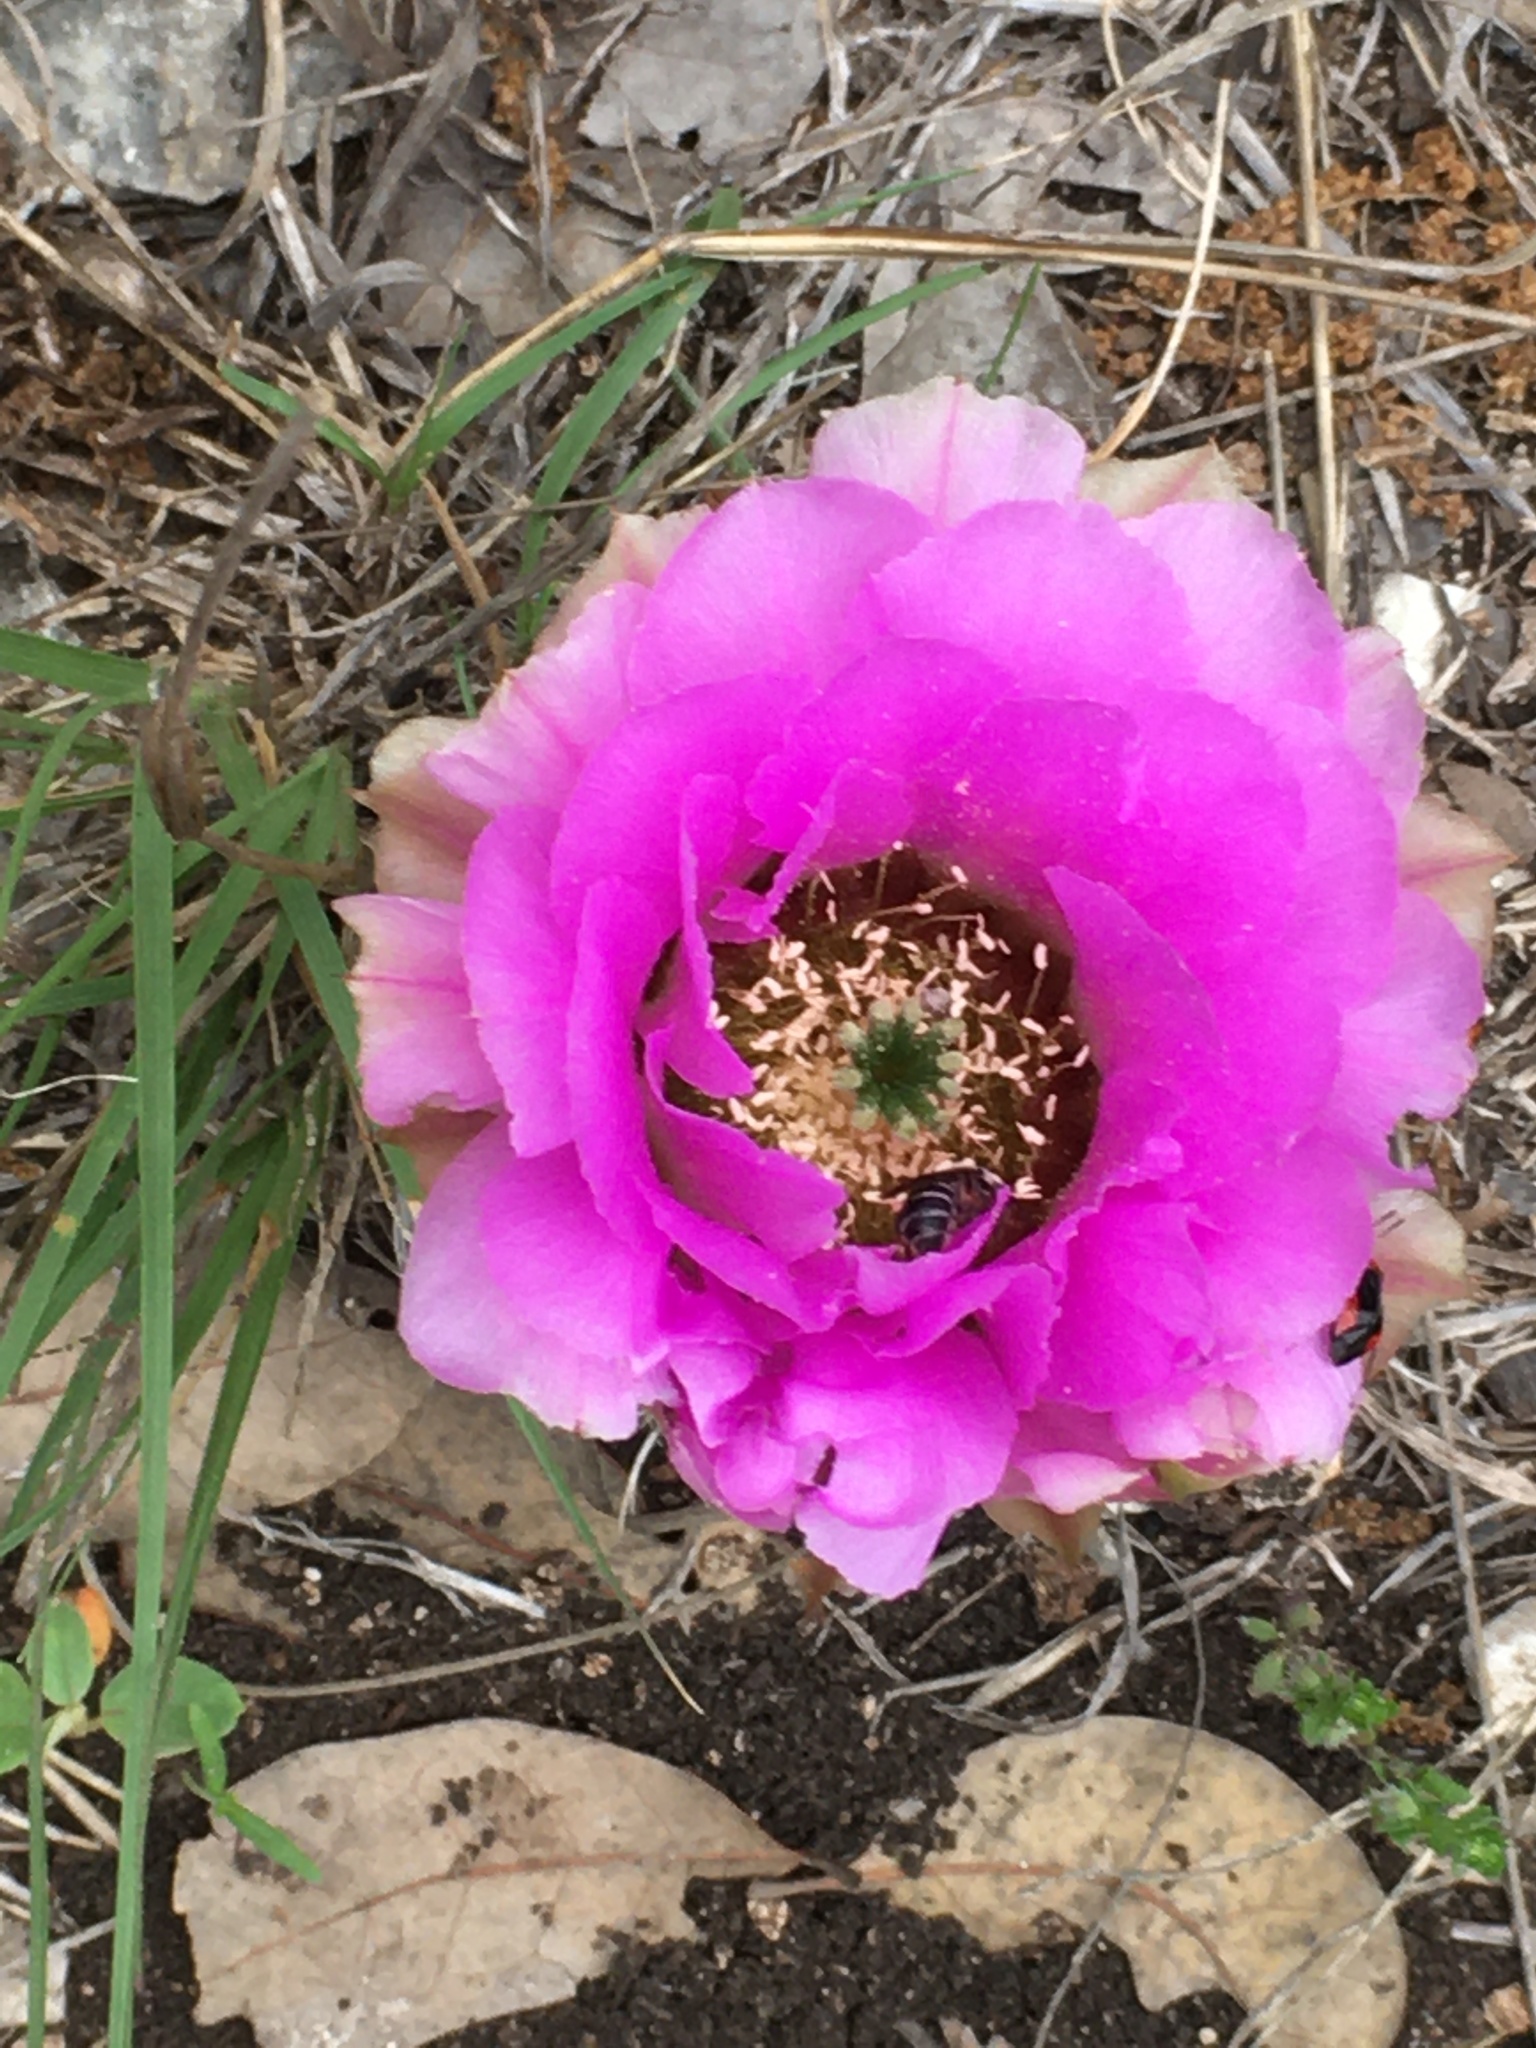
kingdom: Plantae
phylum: Tracheophyta
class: Magnoliopsida
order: Caryophyllales
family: Cactaceae
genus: Echinocereus
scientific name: Echinocereus reichenbachii
